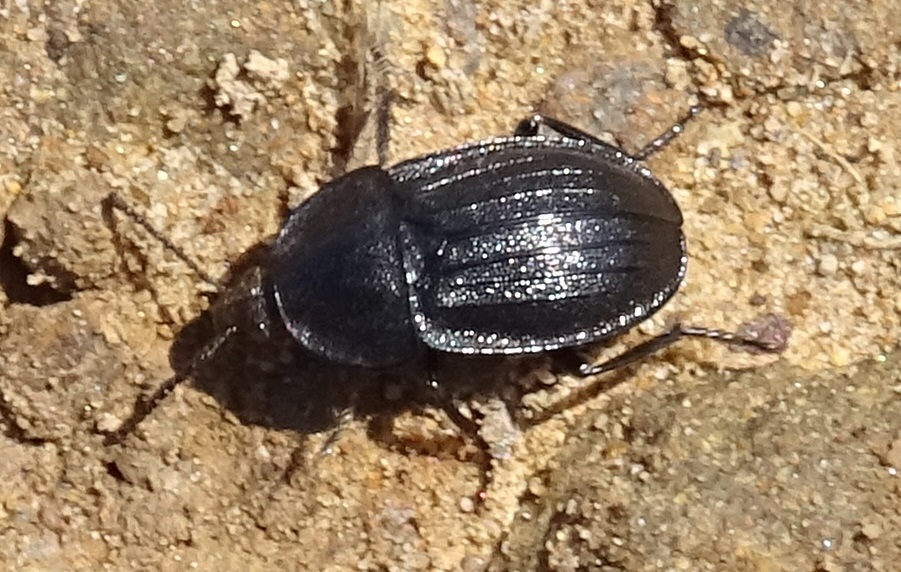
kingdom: Animalia
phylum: Arthropoda
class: Insecta
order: Coleoptera
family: Staphylinidae
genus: Silpha
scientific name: Silpha atrata
